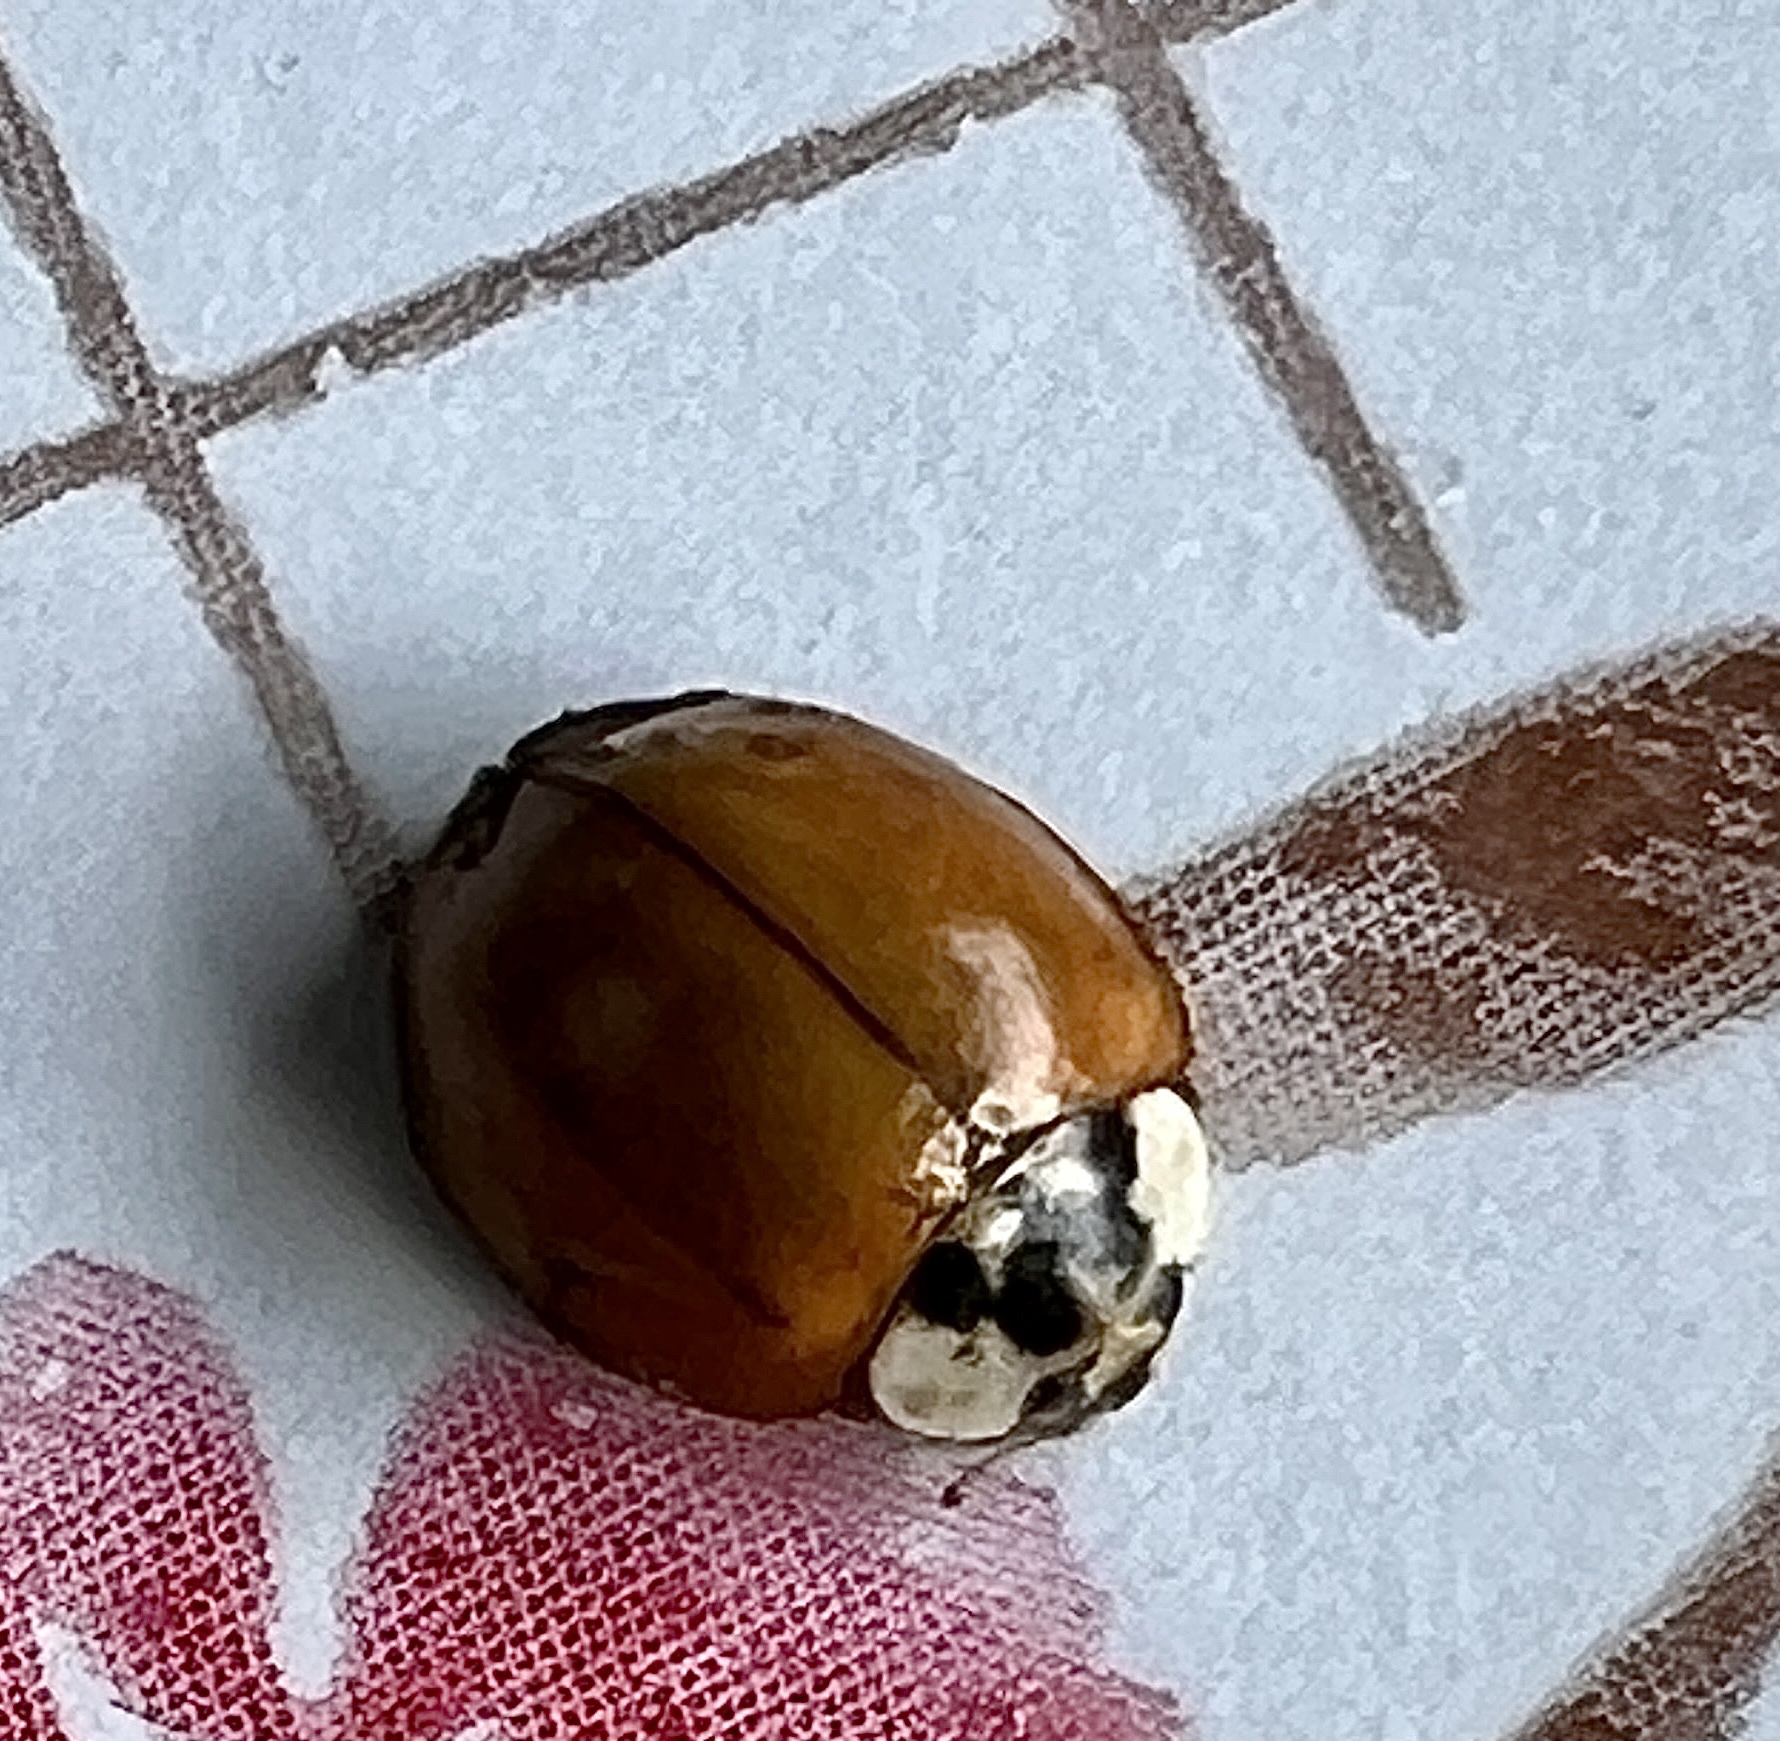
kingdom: Animalia
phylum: Arthropoda
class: Insecta
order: Coleoptera
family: Coccinellidae
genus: Harmonia
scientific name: Harmonia axyridis
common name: Harlequin ladybird
